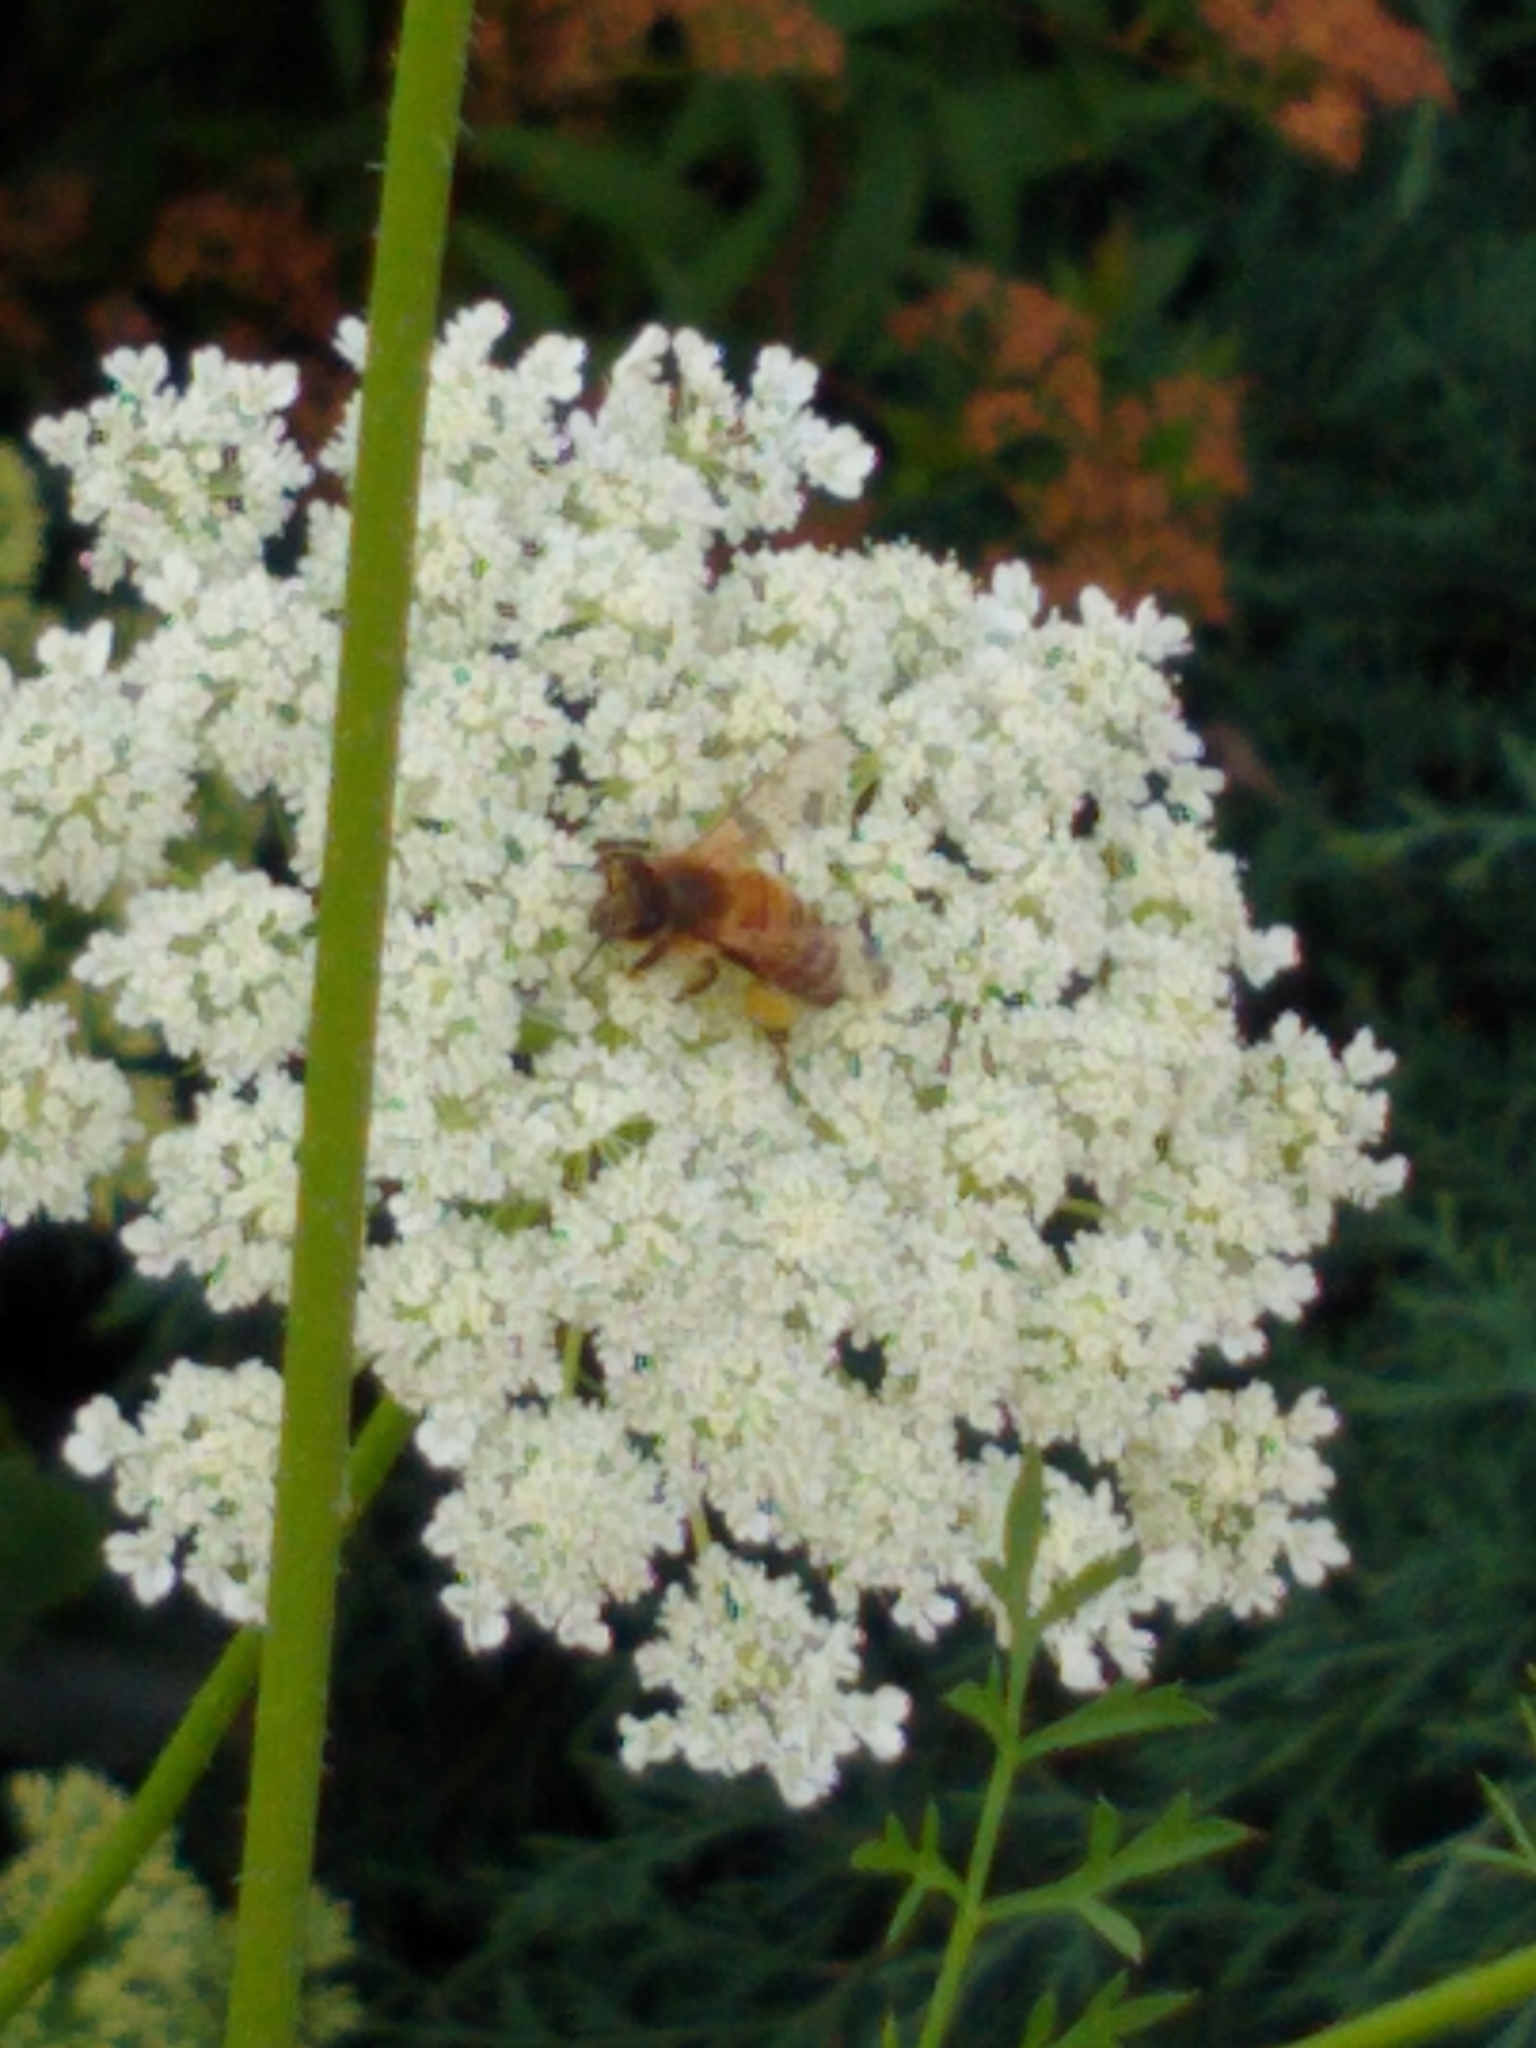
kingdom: Animalia
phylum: Arthropoda
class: Insecta
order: Hymenoptera
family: Apidae
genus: Apis
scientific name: Apis mellifera
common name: Honey bee
